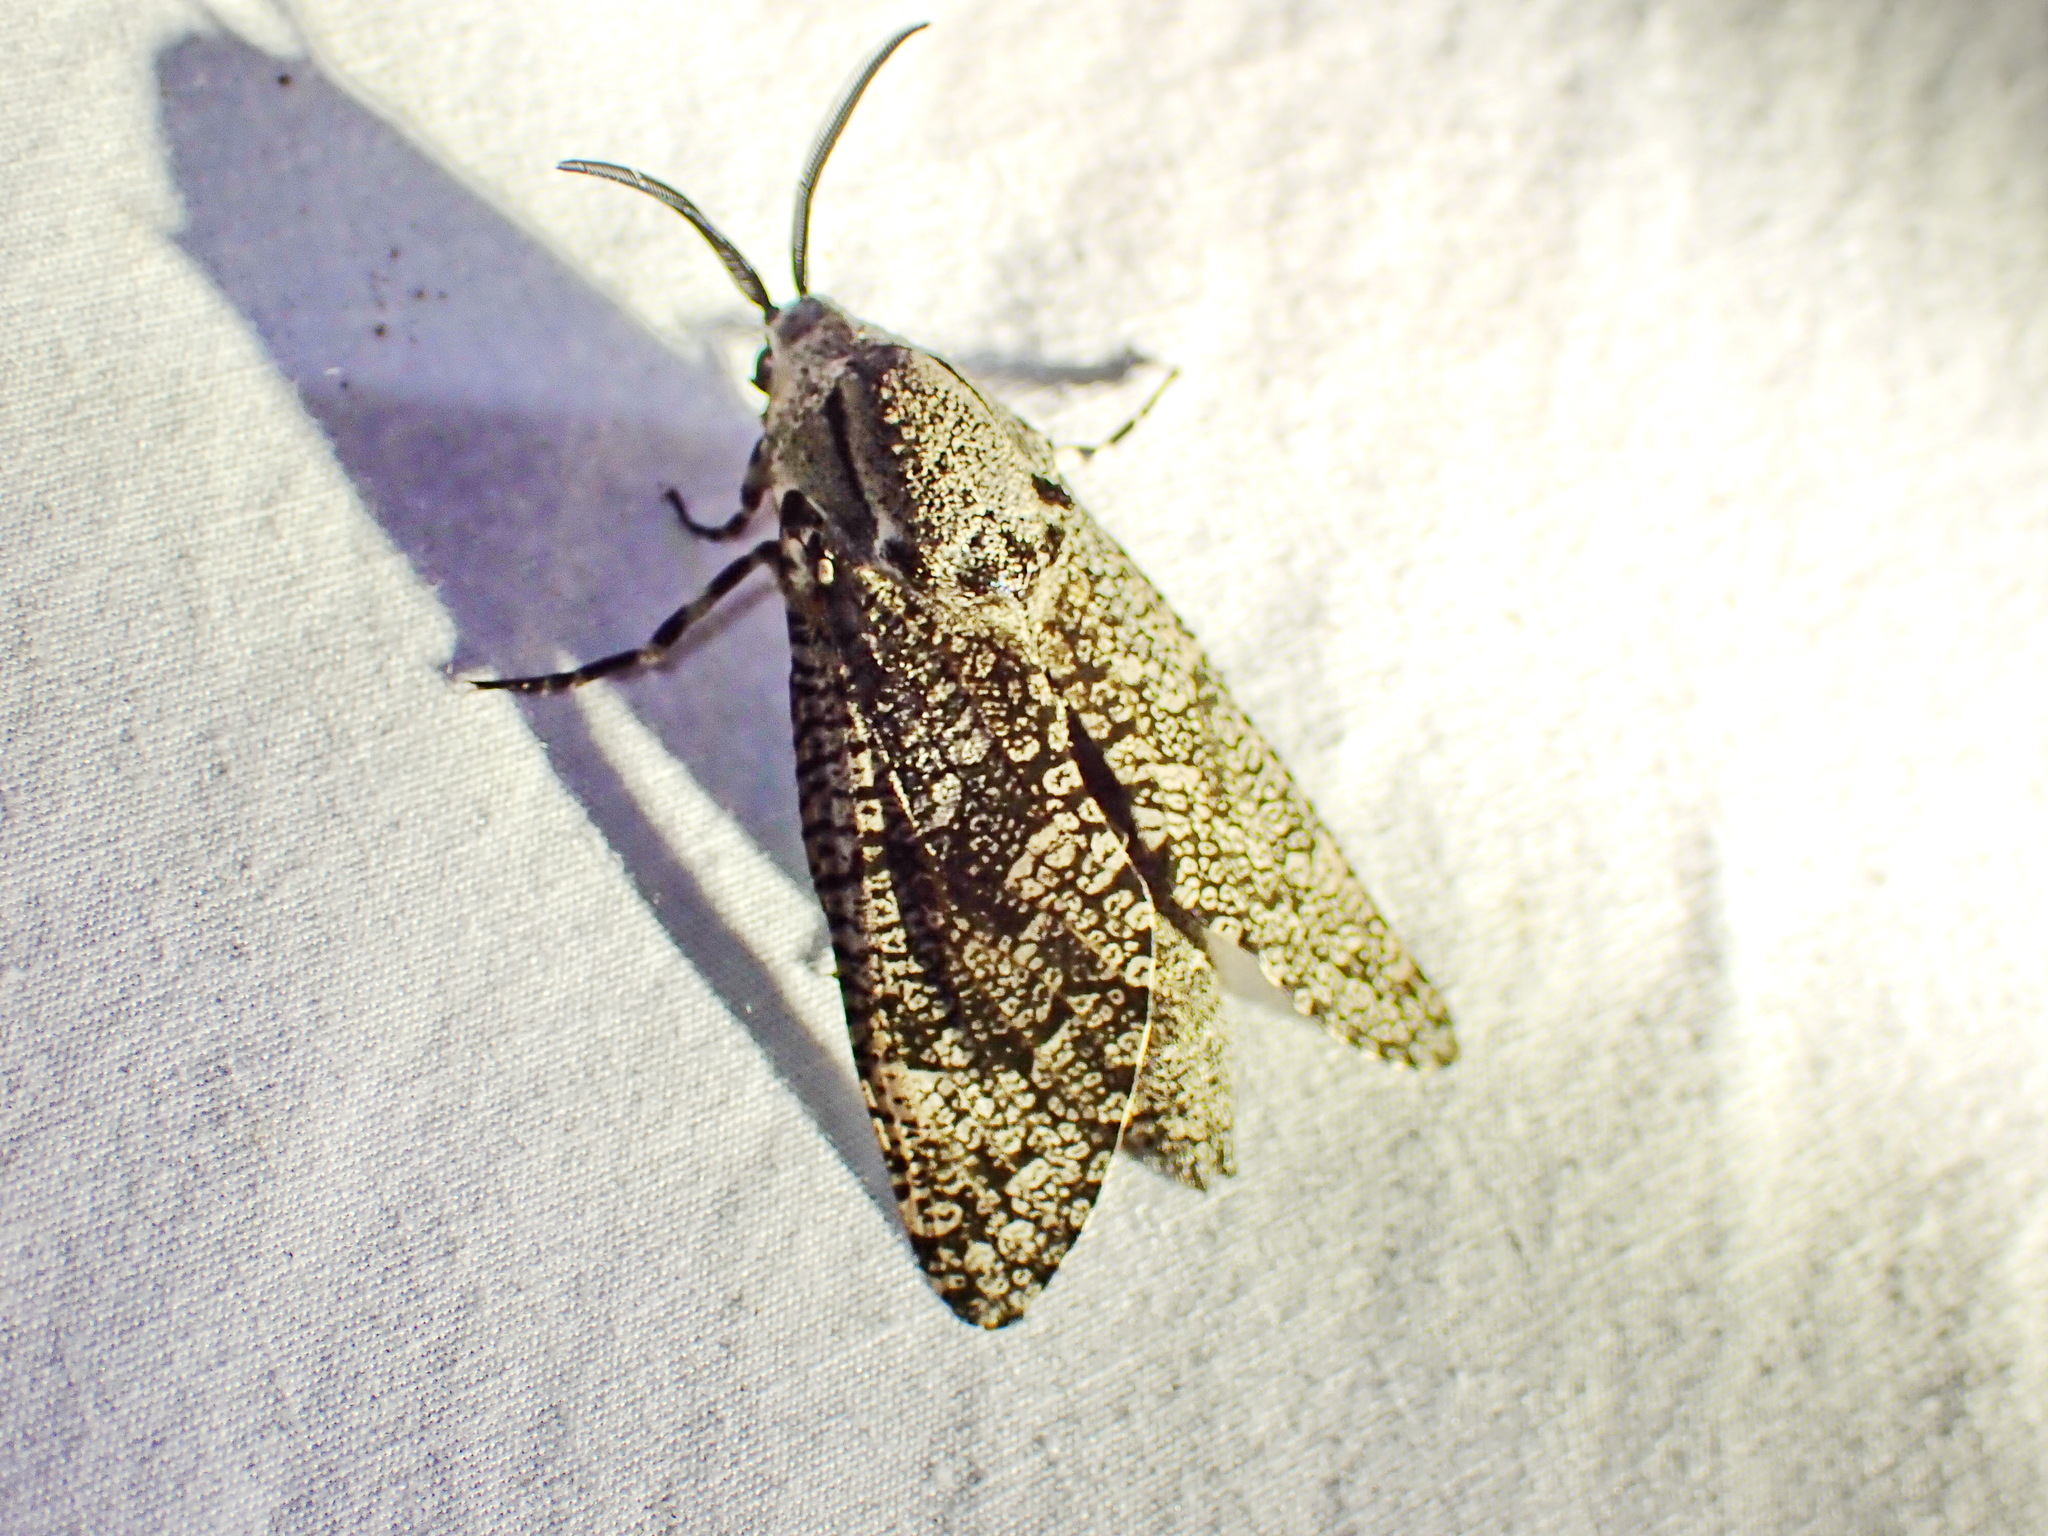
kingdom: Animalia
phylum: Arthropoda
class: Insecta
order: Lepidoptera
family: Cossidae
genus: Prionoxystus
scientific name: Prionoxystus robiniae
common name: Carpenterworm
